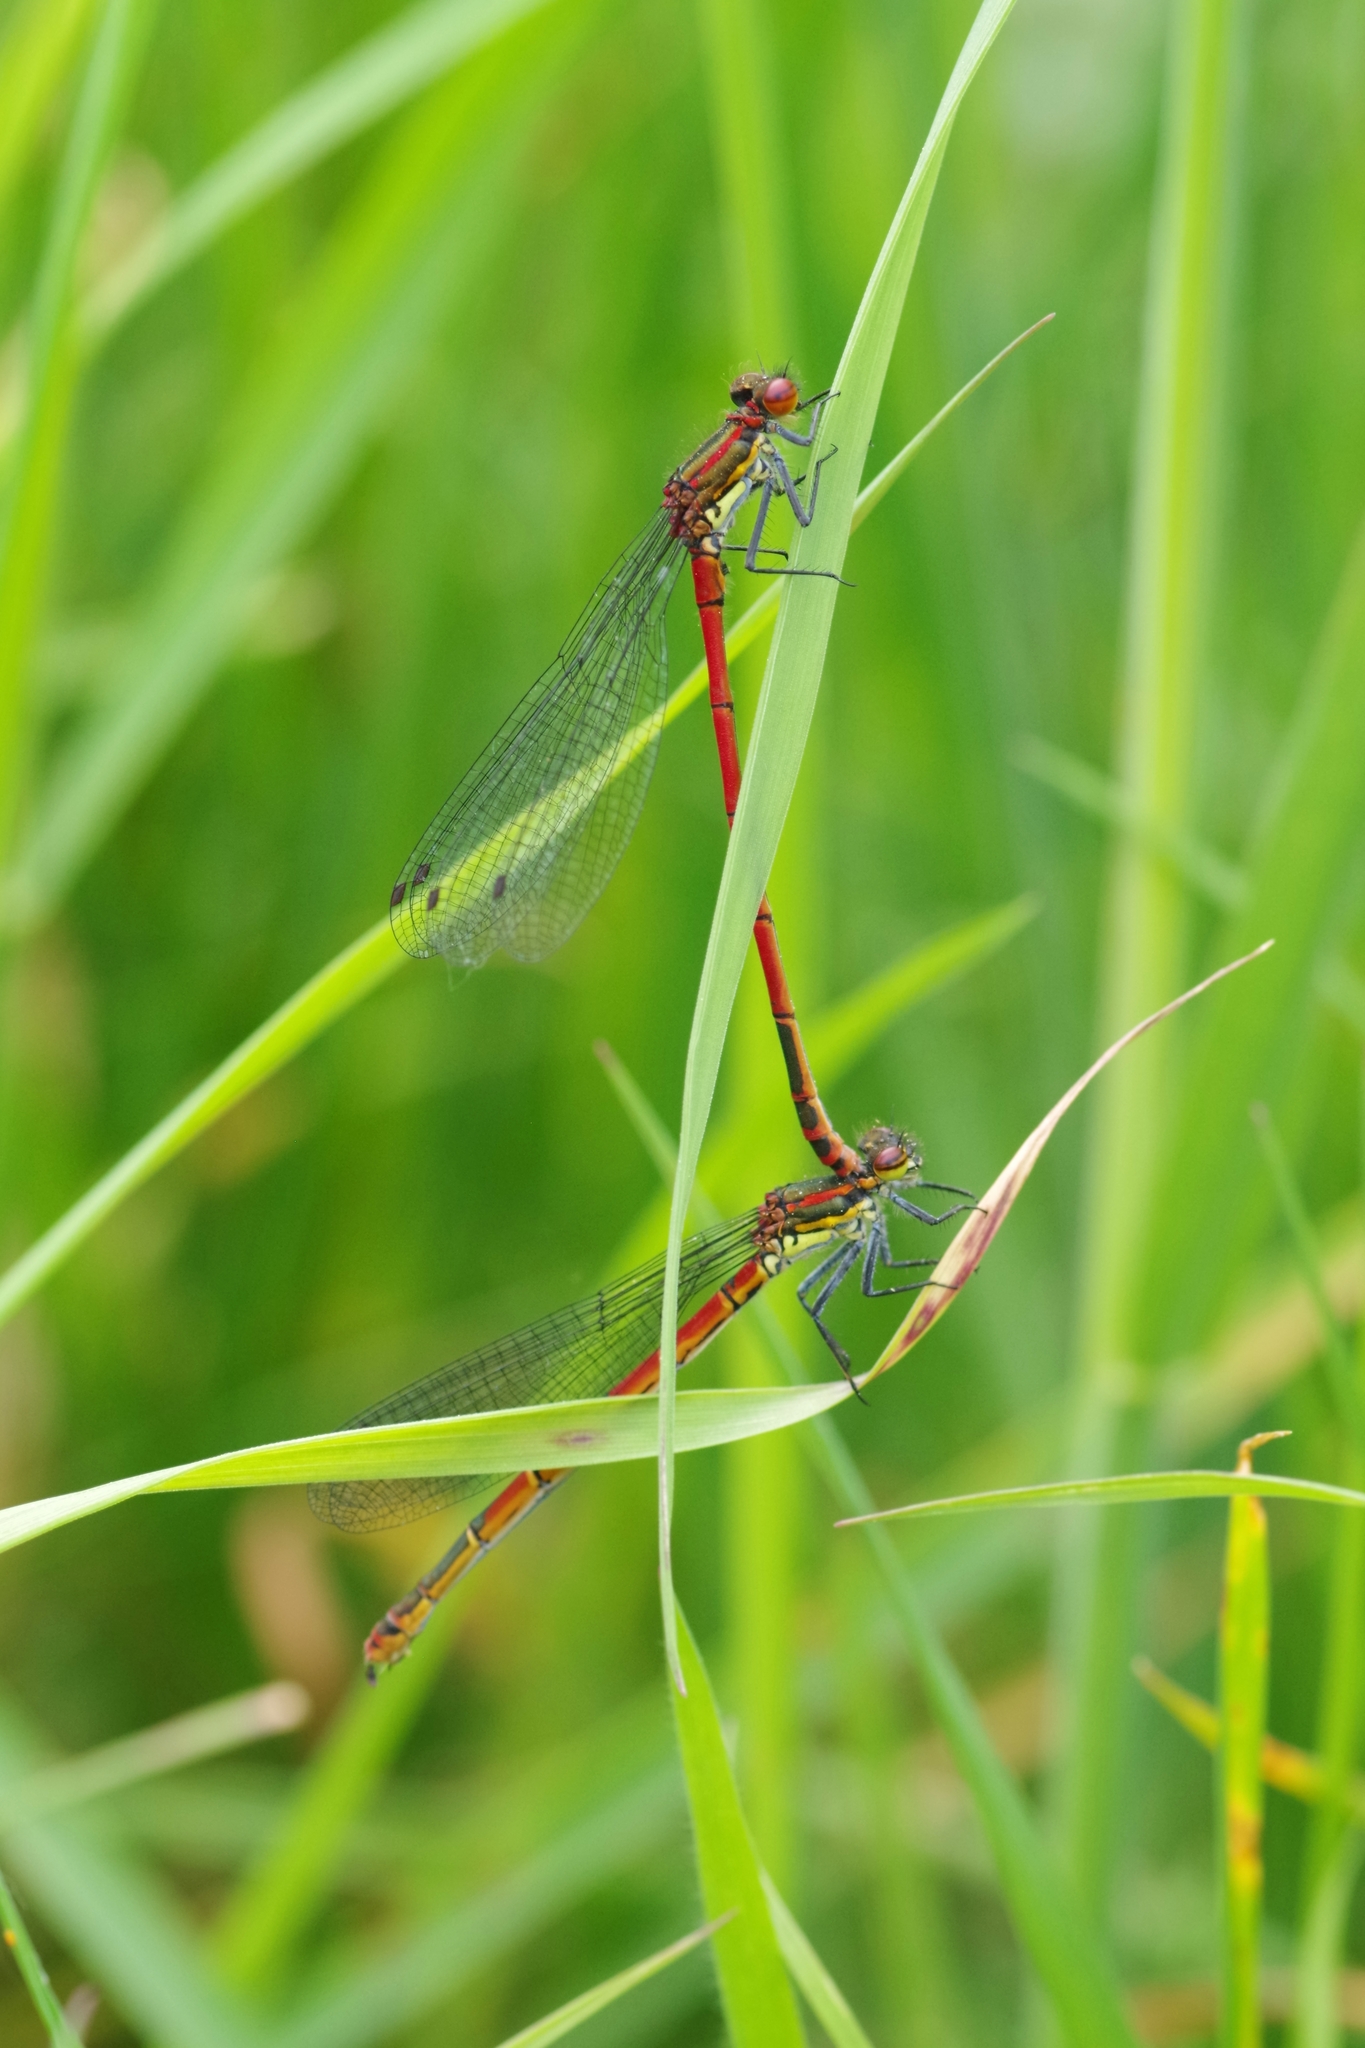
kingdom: Animalia
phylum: Arthropoda
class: Insecta
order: Odonata
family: Coenagrionidae
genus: Pyrrhosoma
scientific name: Pyrrhosoma nymphula
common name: Large red damsel
